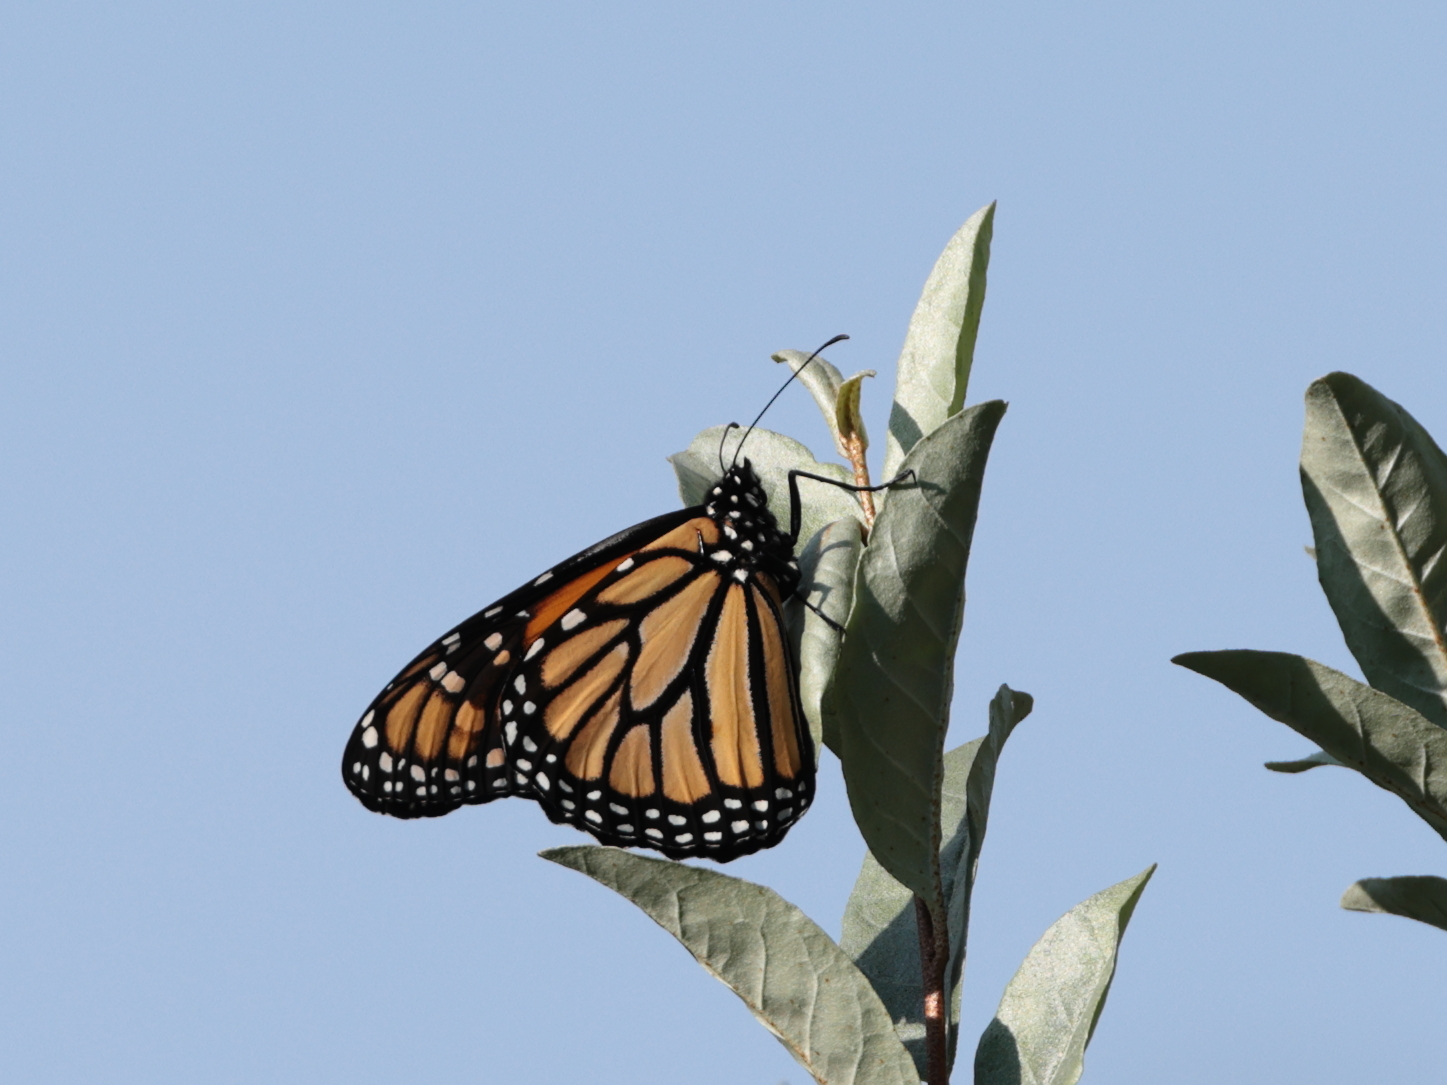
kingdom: Animalia
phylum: Arthropoda
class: Insecta
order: Lepidoptera
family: Nymphalidae
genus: Danaus
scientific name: Danaus plexippus
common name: Monarch
